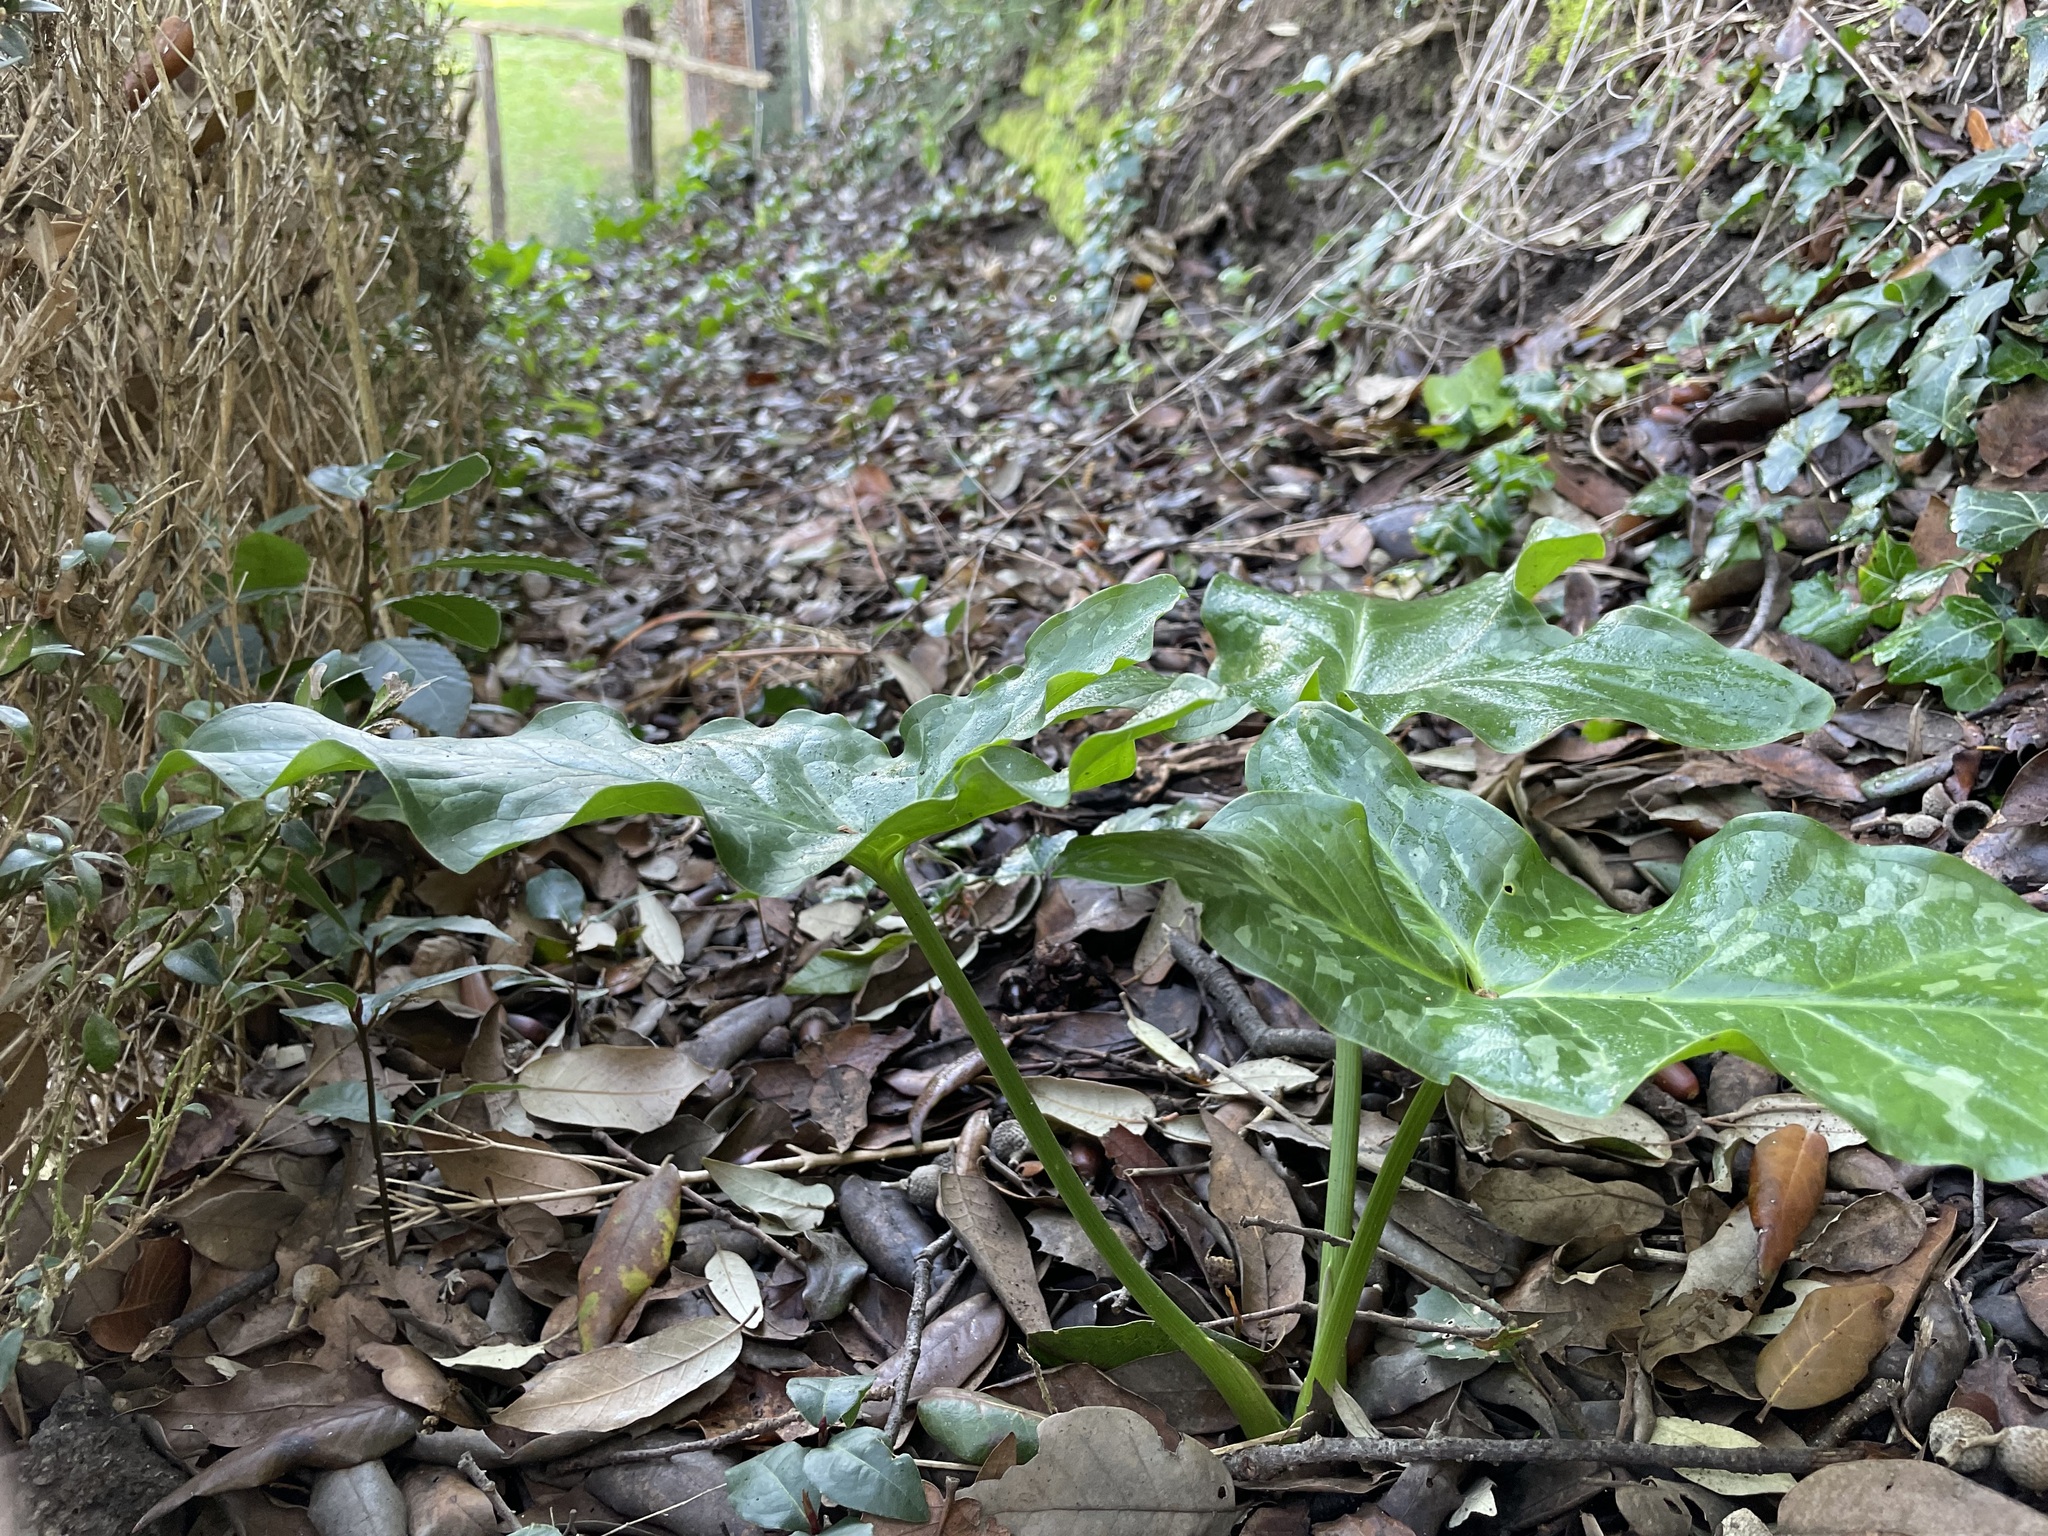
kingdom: Plantae
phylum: Tracheophyta
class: Liliopsida
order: Alismatales
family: Araceae
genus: Arum
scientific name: Arum italicum
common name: Italian lords-and-ladies
